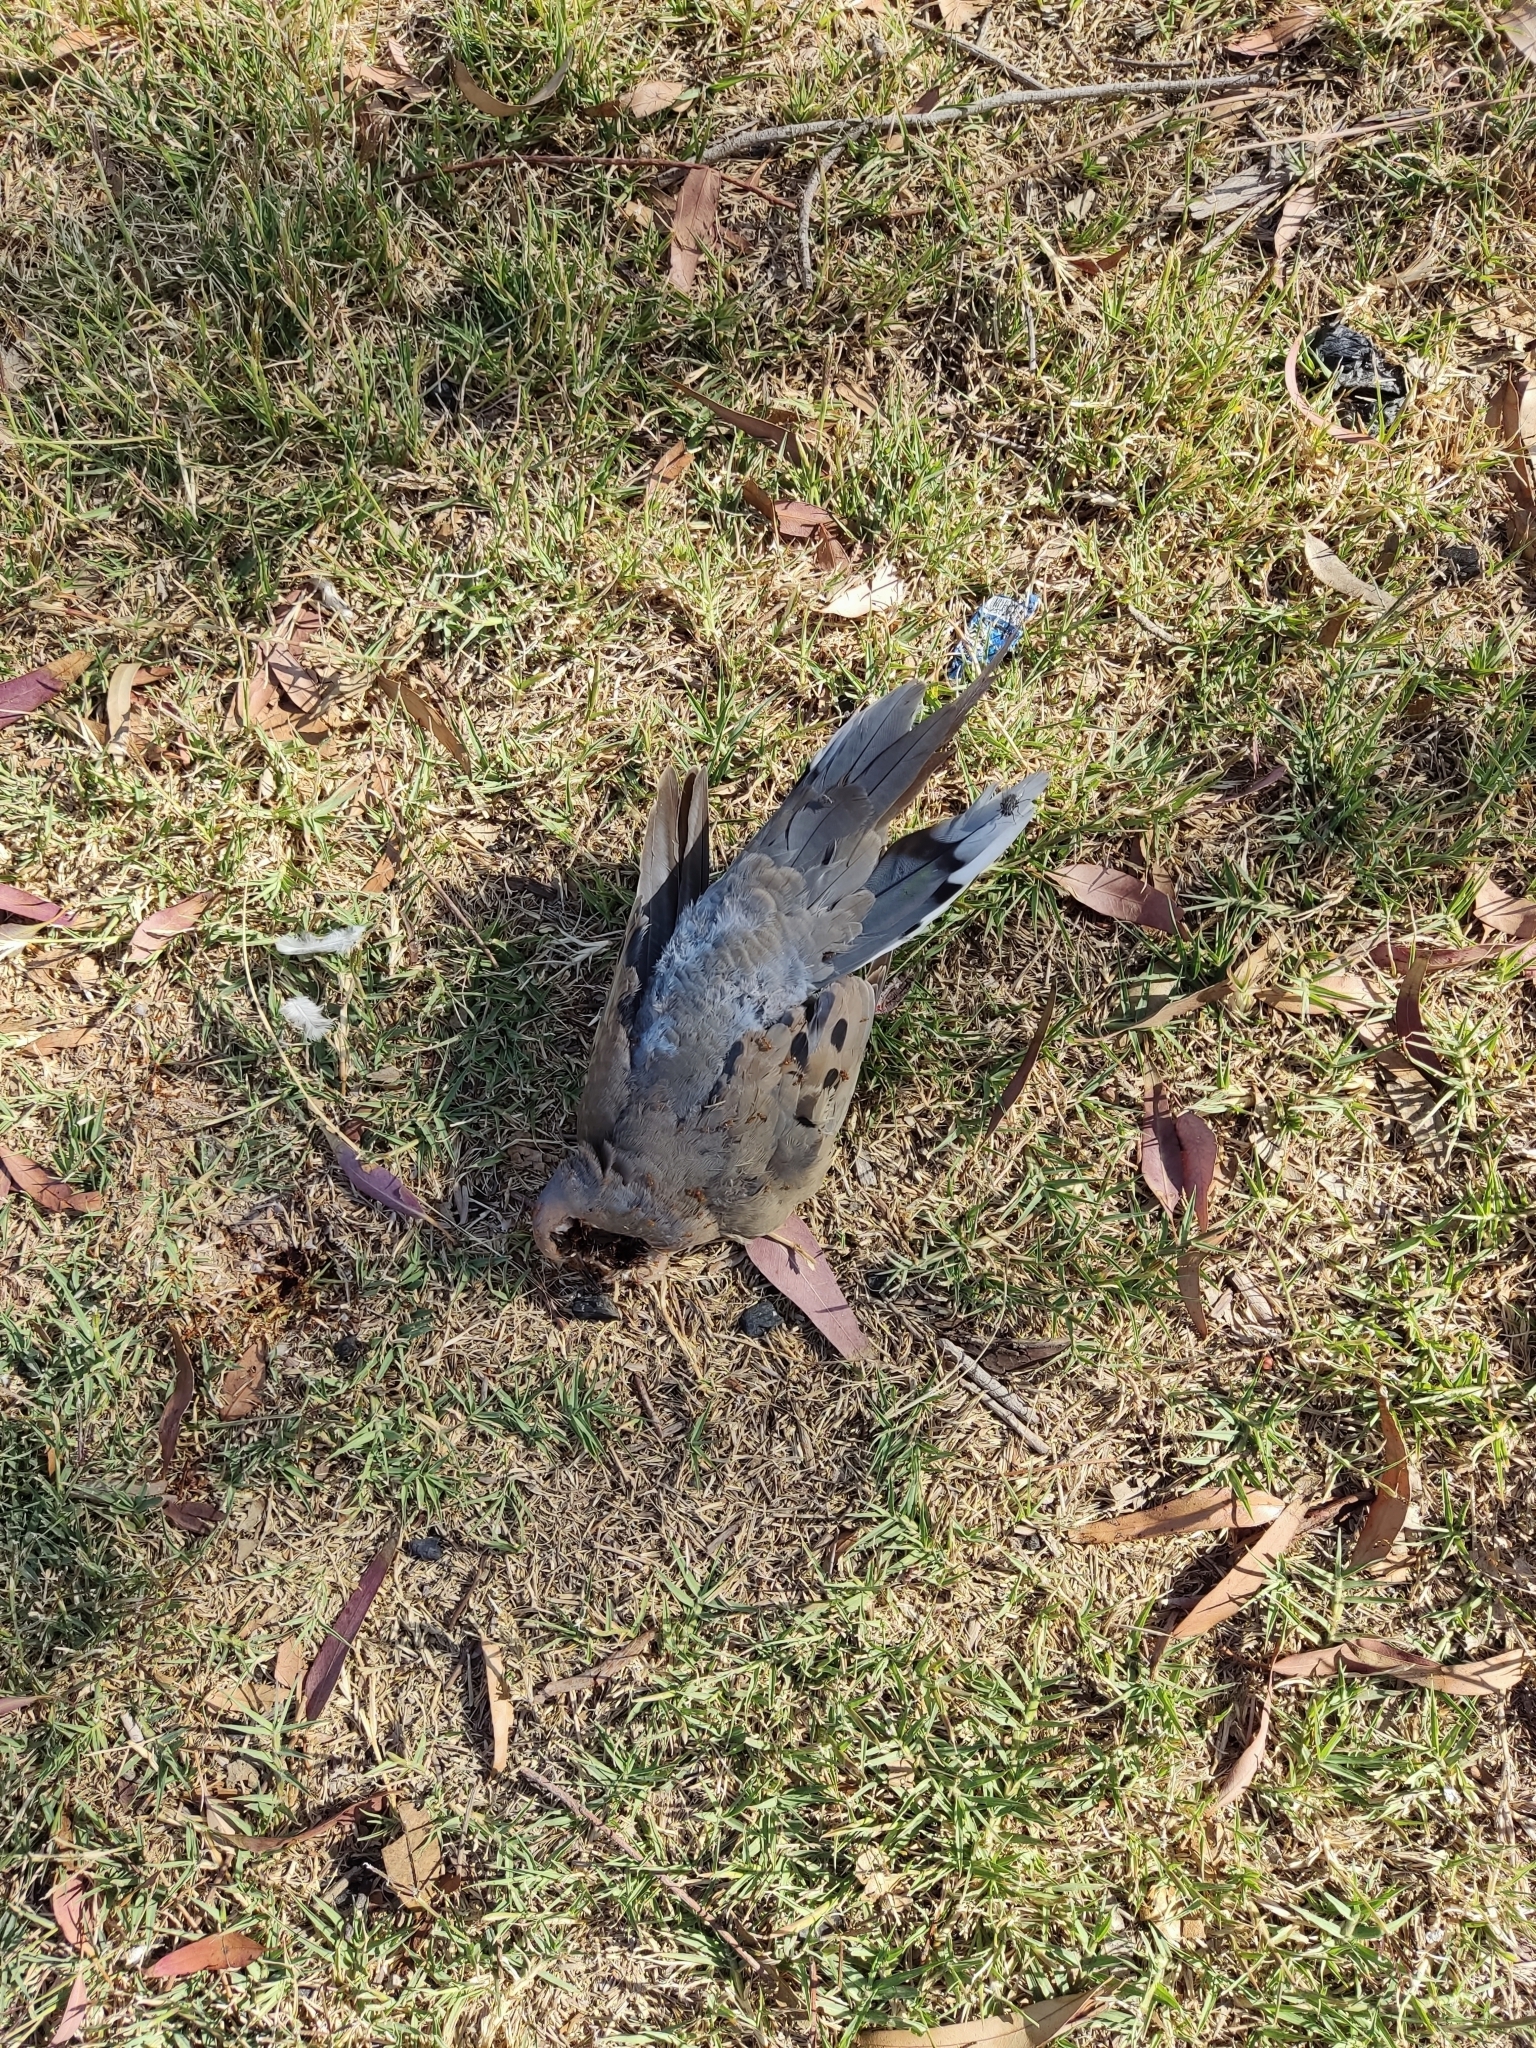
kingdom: Animalia
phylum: Chordata
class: Aves
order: Columbiformes
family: Columbidae
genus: Zenaida
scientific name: Zenaida macroura
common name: Mourning dove
